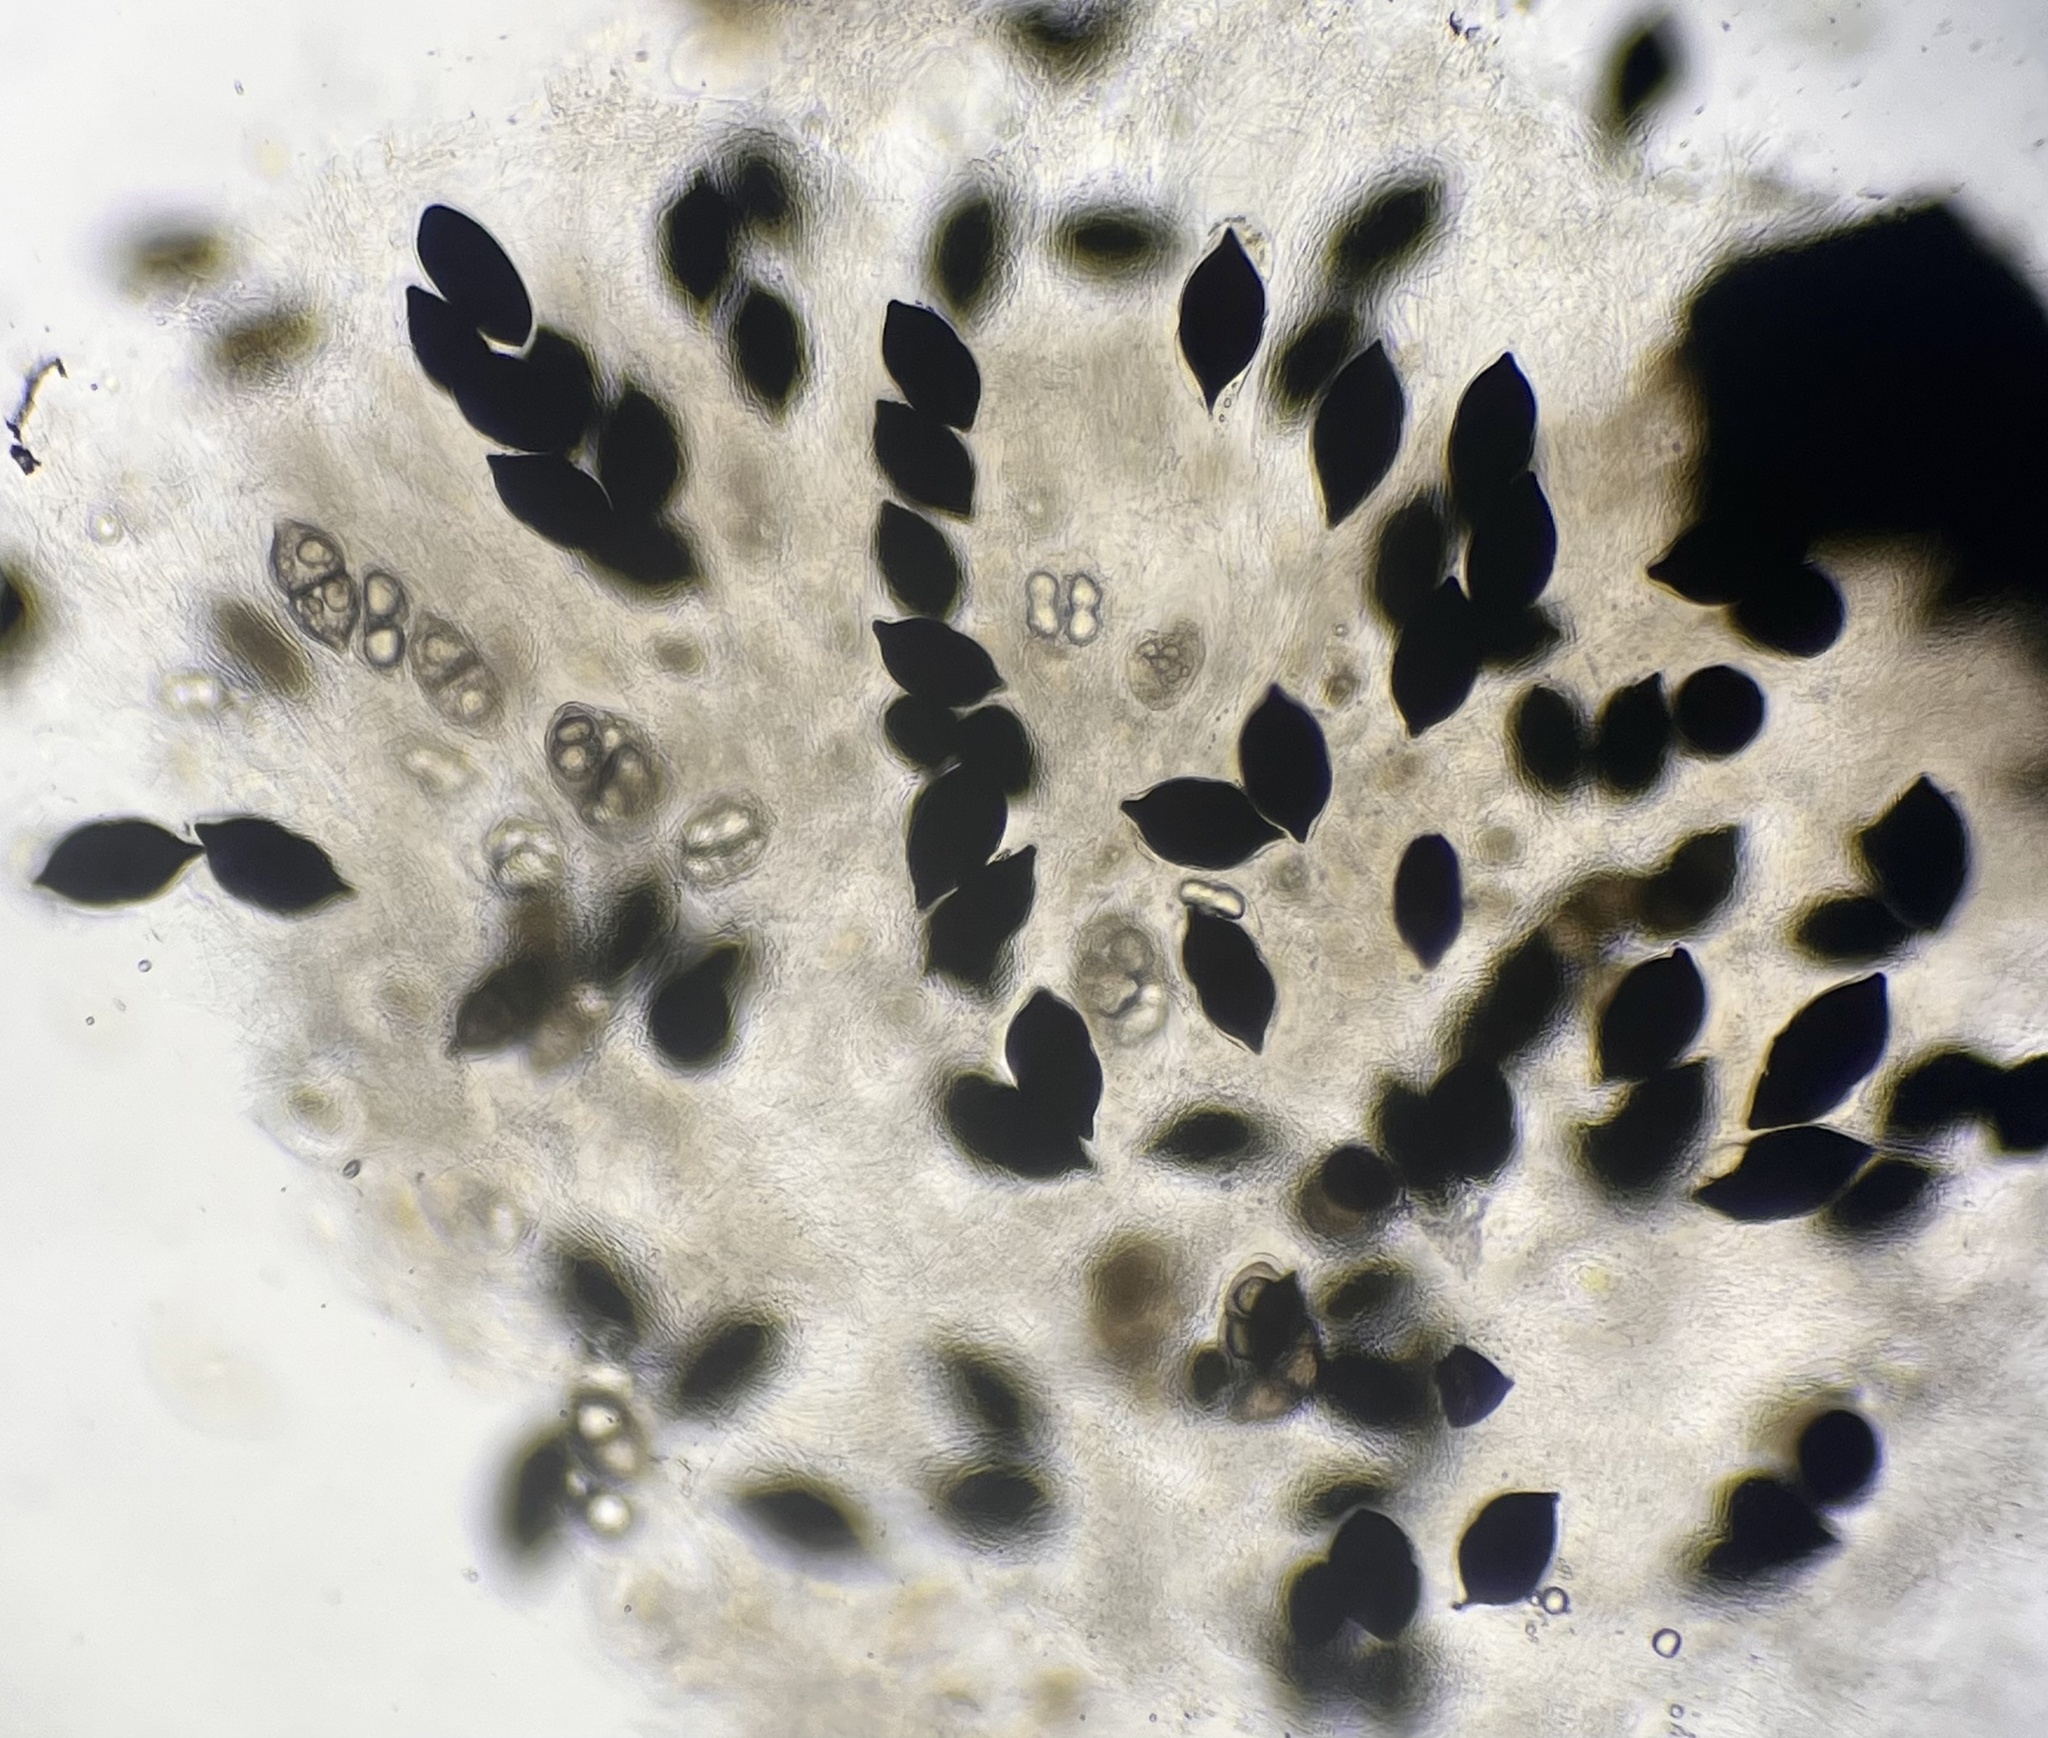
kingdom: Fungi
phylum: Ascomycota
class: Dothideomycetes
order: Pleosporales
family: Caryosporaceae
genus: Caryospora
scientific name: Caryospora putaminum
